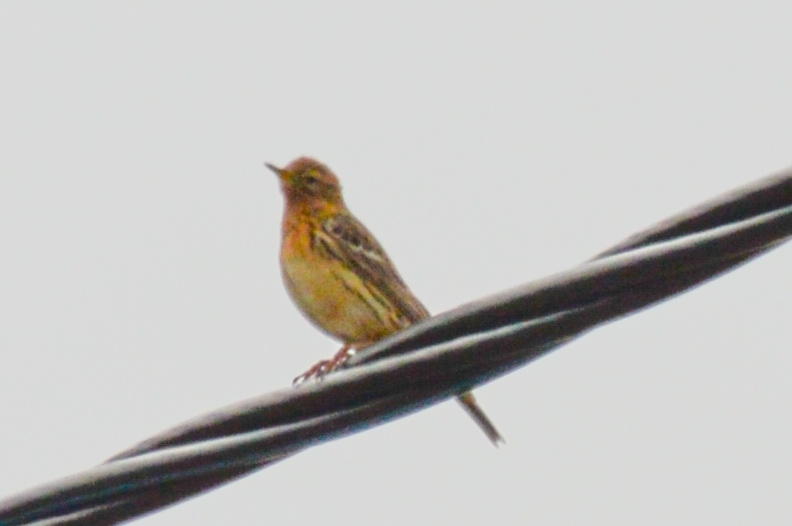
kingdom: Animalia
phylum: Chordata
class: Aves
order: Passeriformes
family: Motacillidae
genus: Anthus
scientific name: Anthus cervinus
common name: Red-throated pipit
